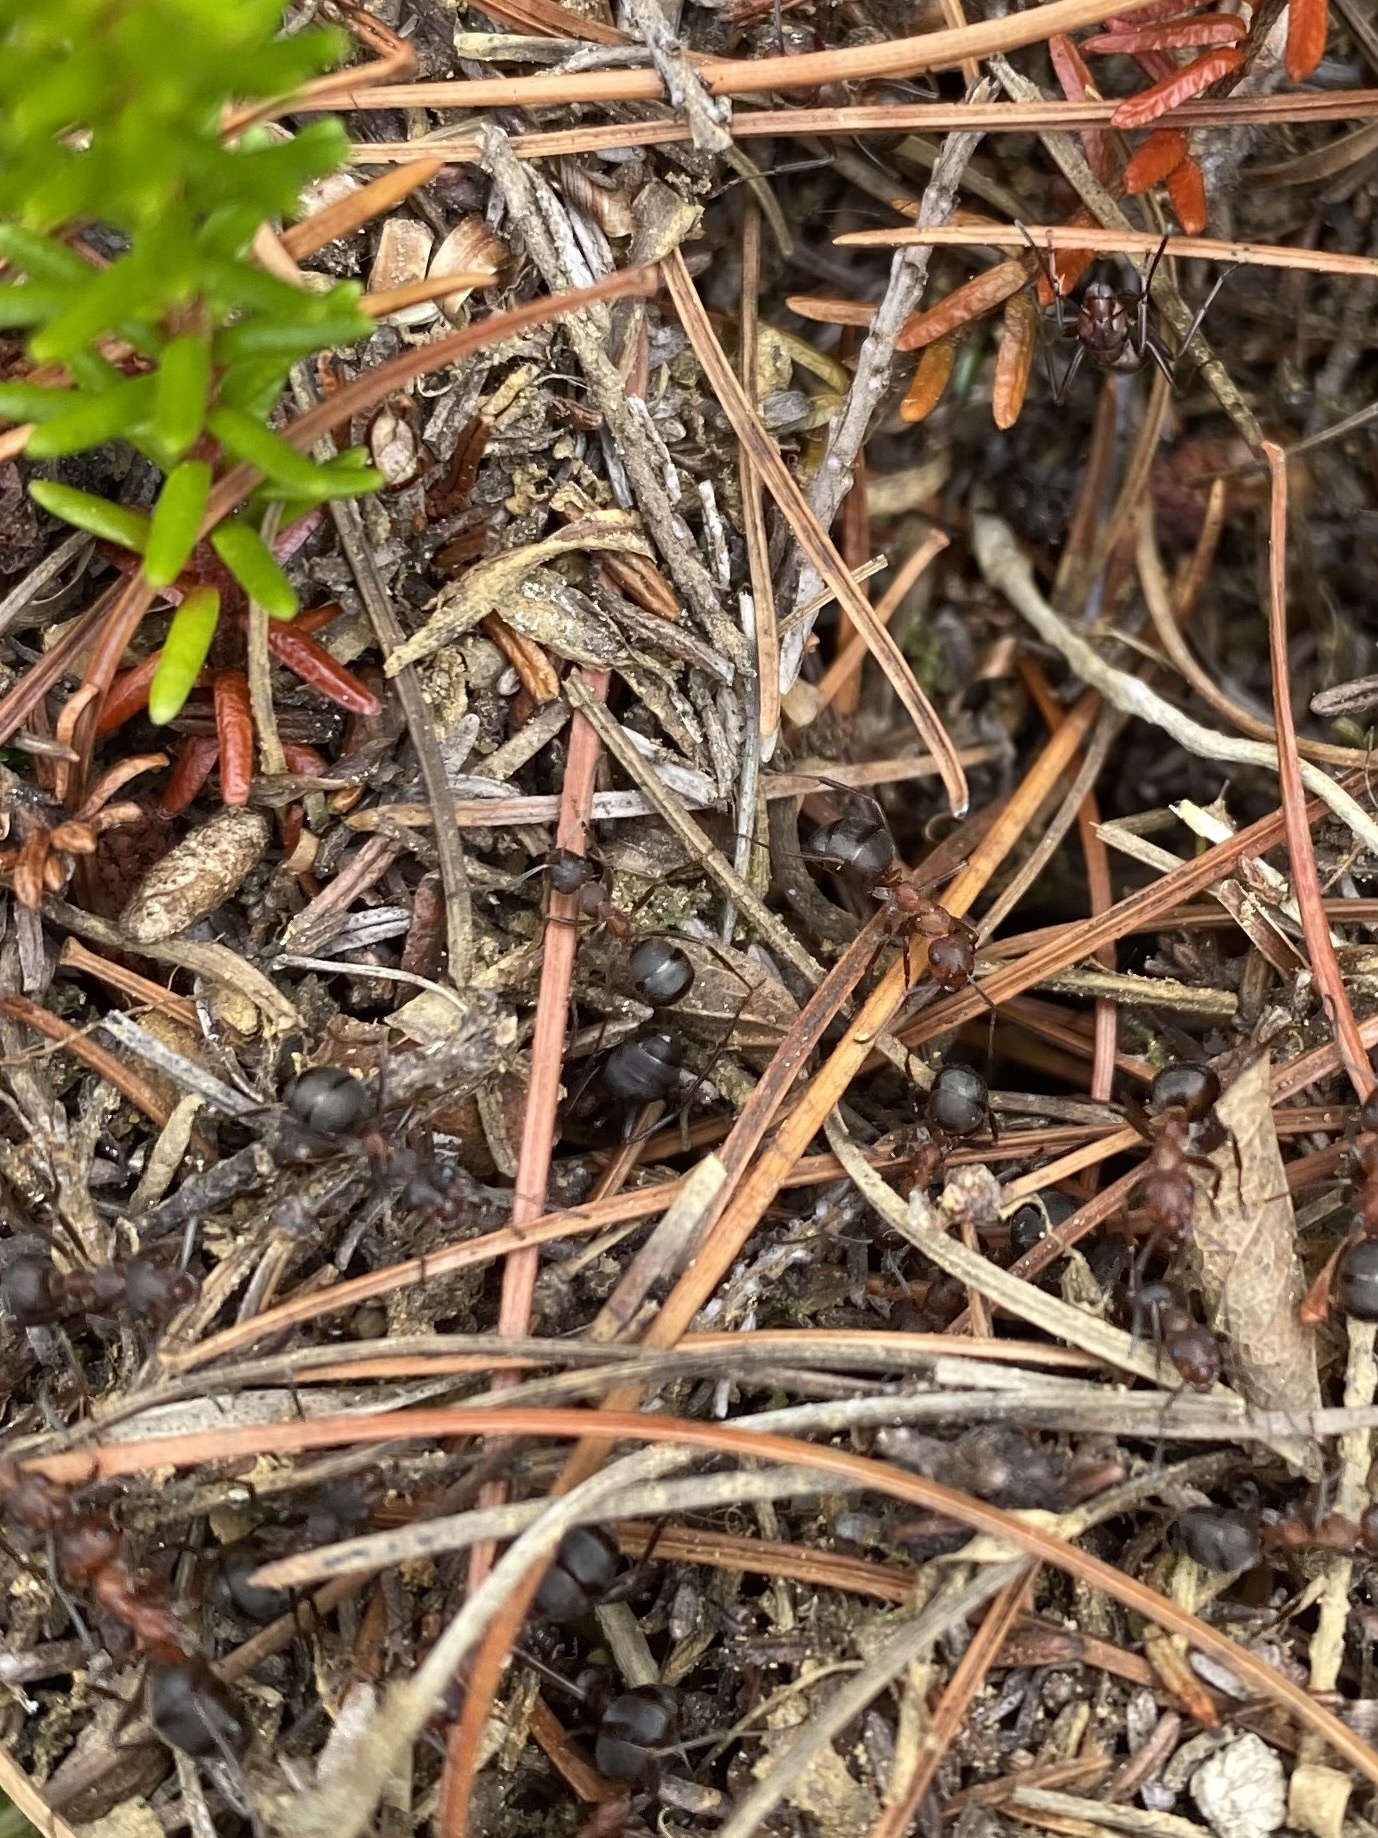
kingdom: Animalia
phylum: Arthropoda
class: Insecta
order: Hymenoptera
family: Formicidae
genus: Formica
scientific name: Formica truncorum
